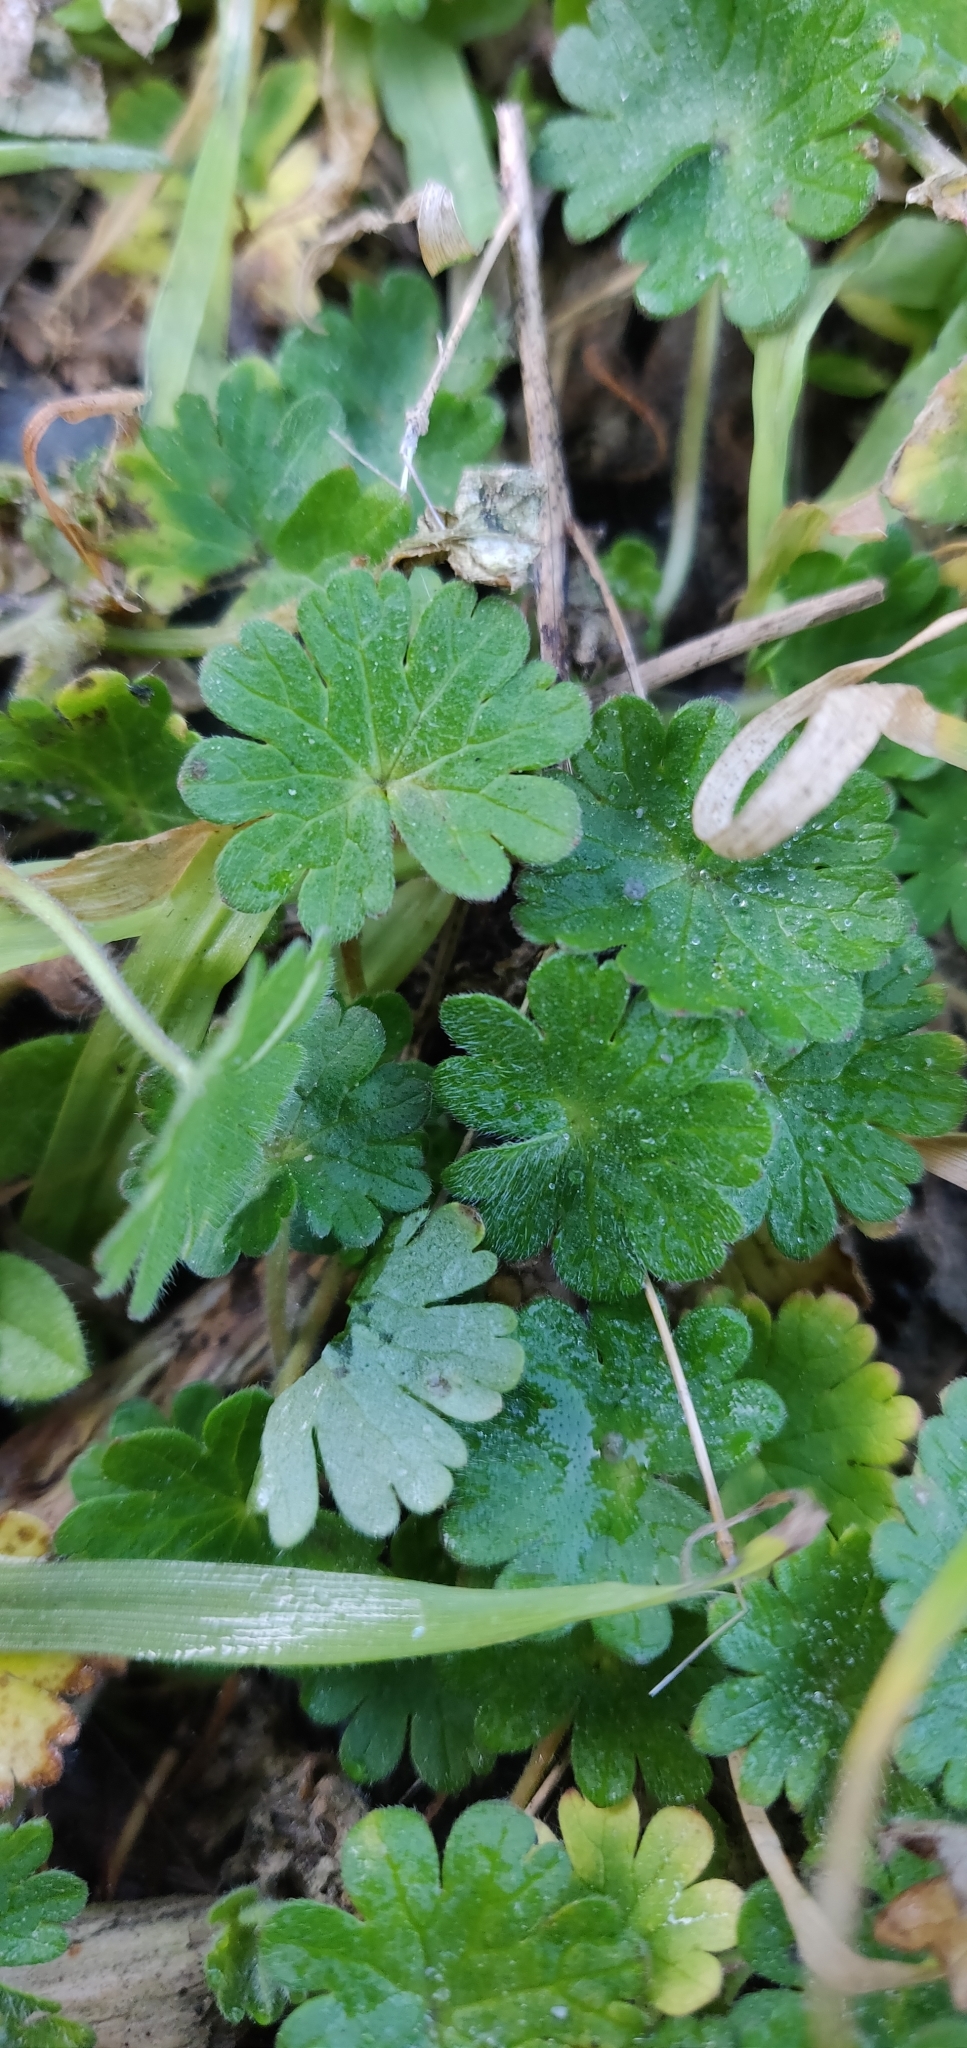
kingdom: Plantae
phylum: Tracheophyta
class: Magnoliopsida
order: Geraniales
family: Geraniaceae
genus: Geranium
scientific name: Geranium molle
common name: Dove's-foot crane's-bill
